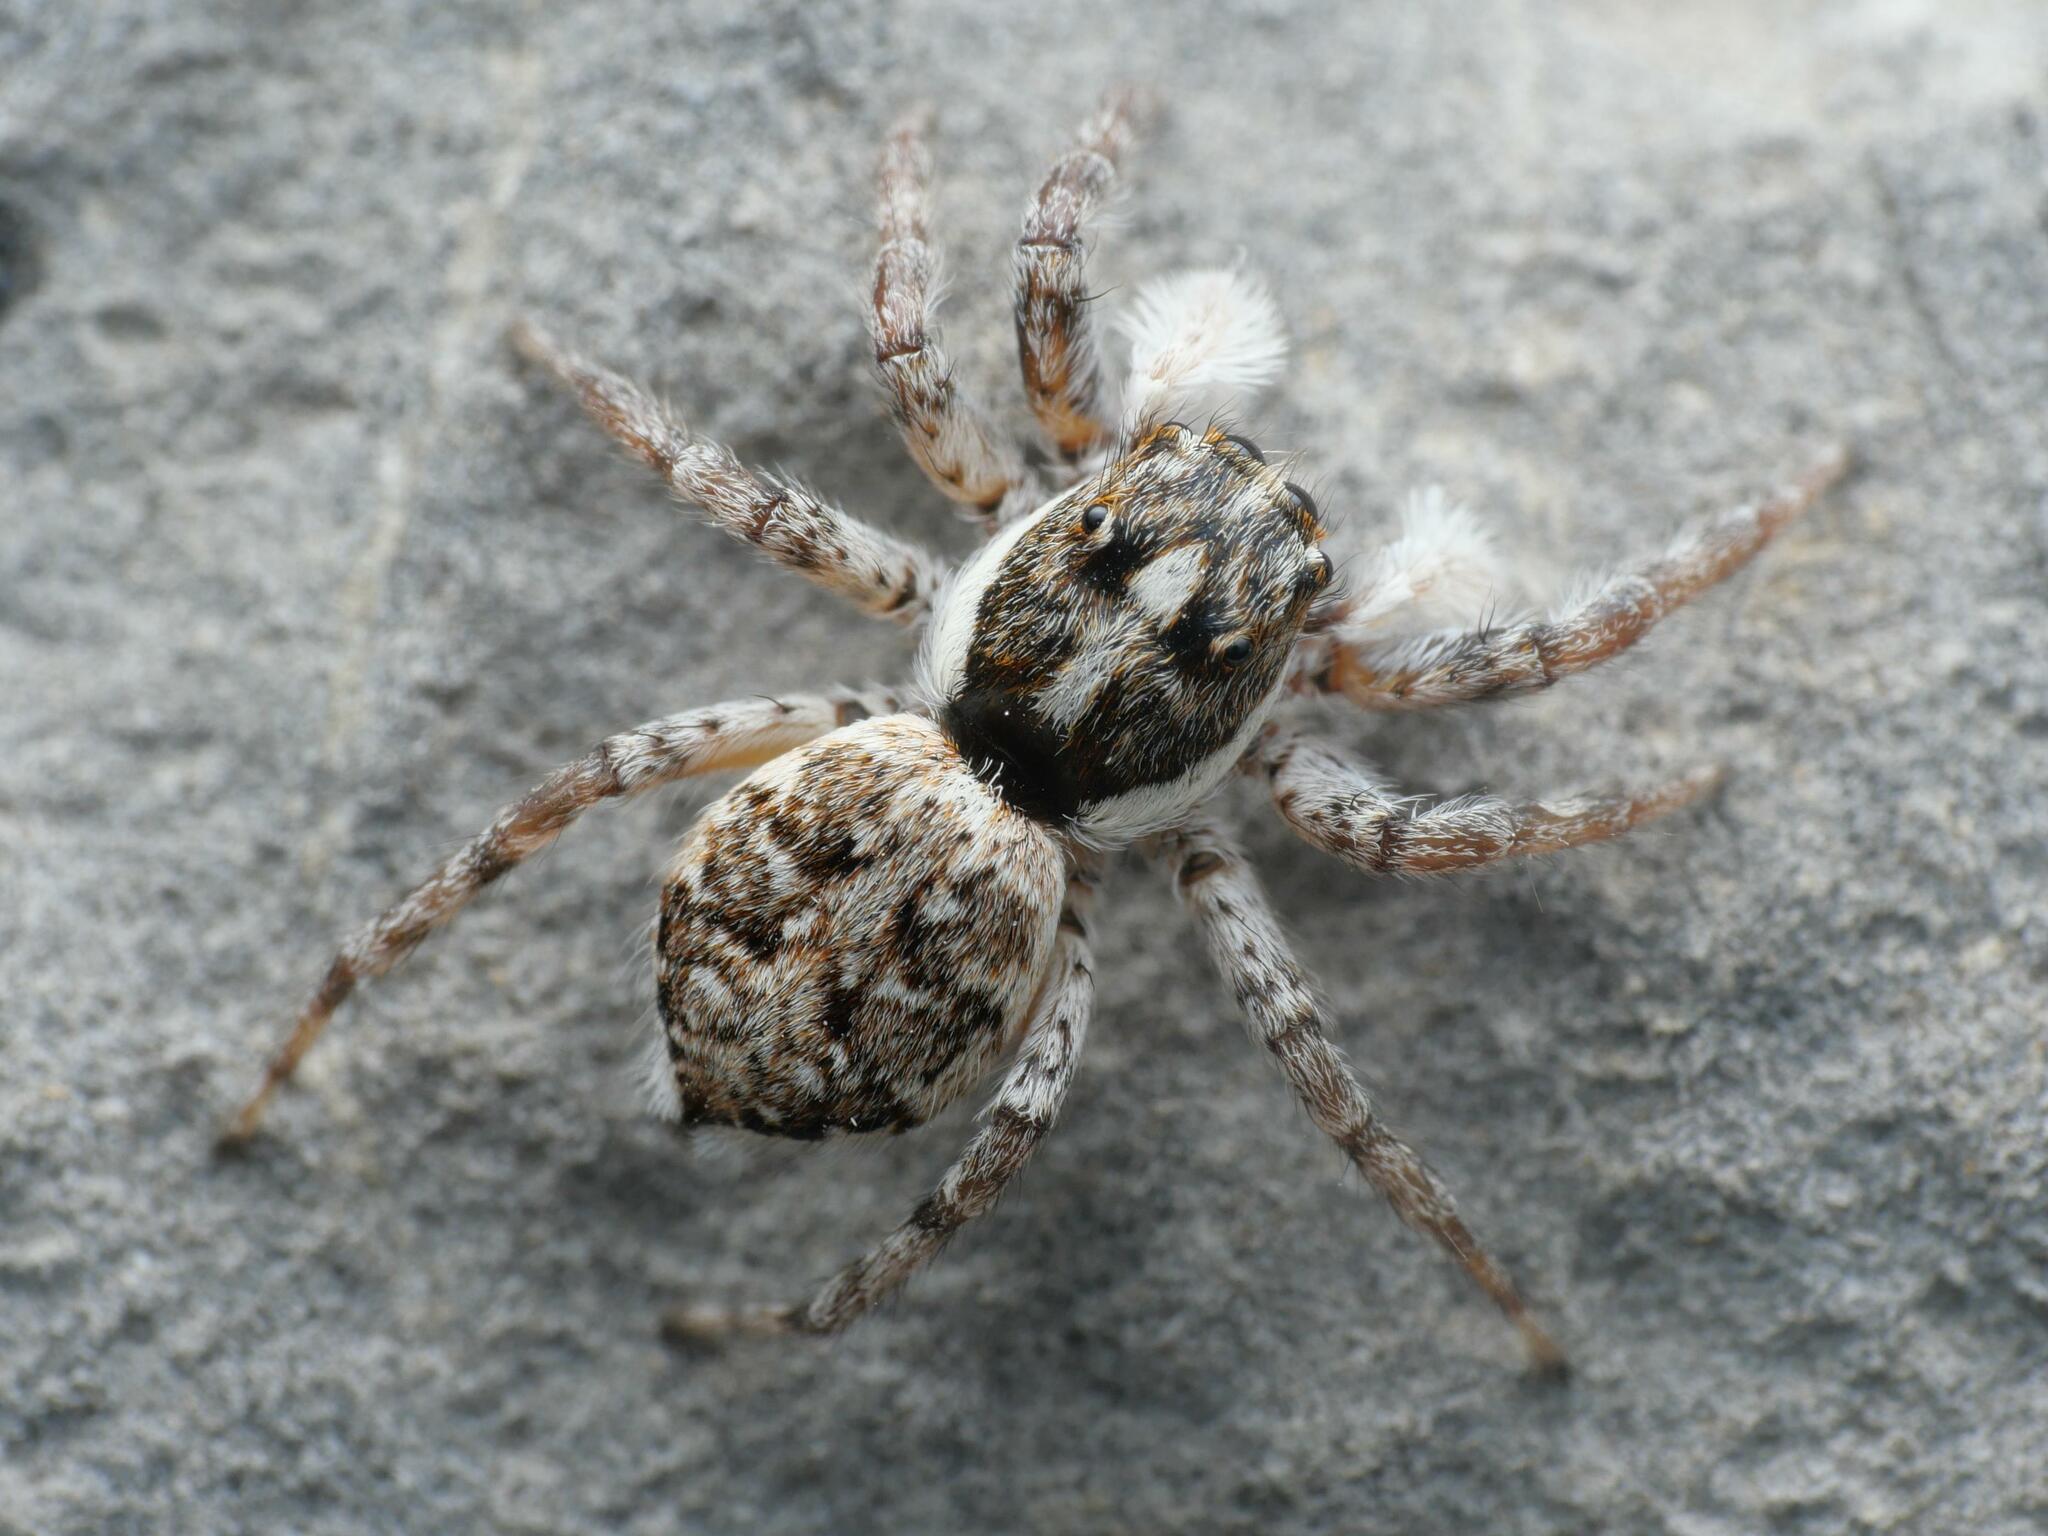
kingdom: Animalia
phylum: Arthropoda
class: Arachnida
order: Araneae
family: Salticidae
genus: Menemerus
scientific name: Menemerus semilimbatus
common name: Jumping spider
